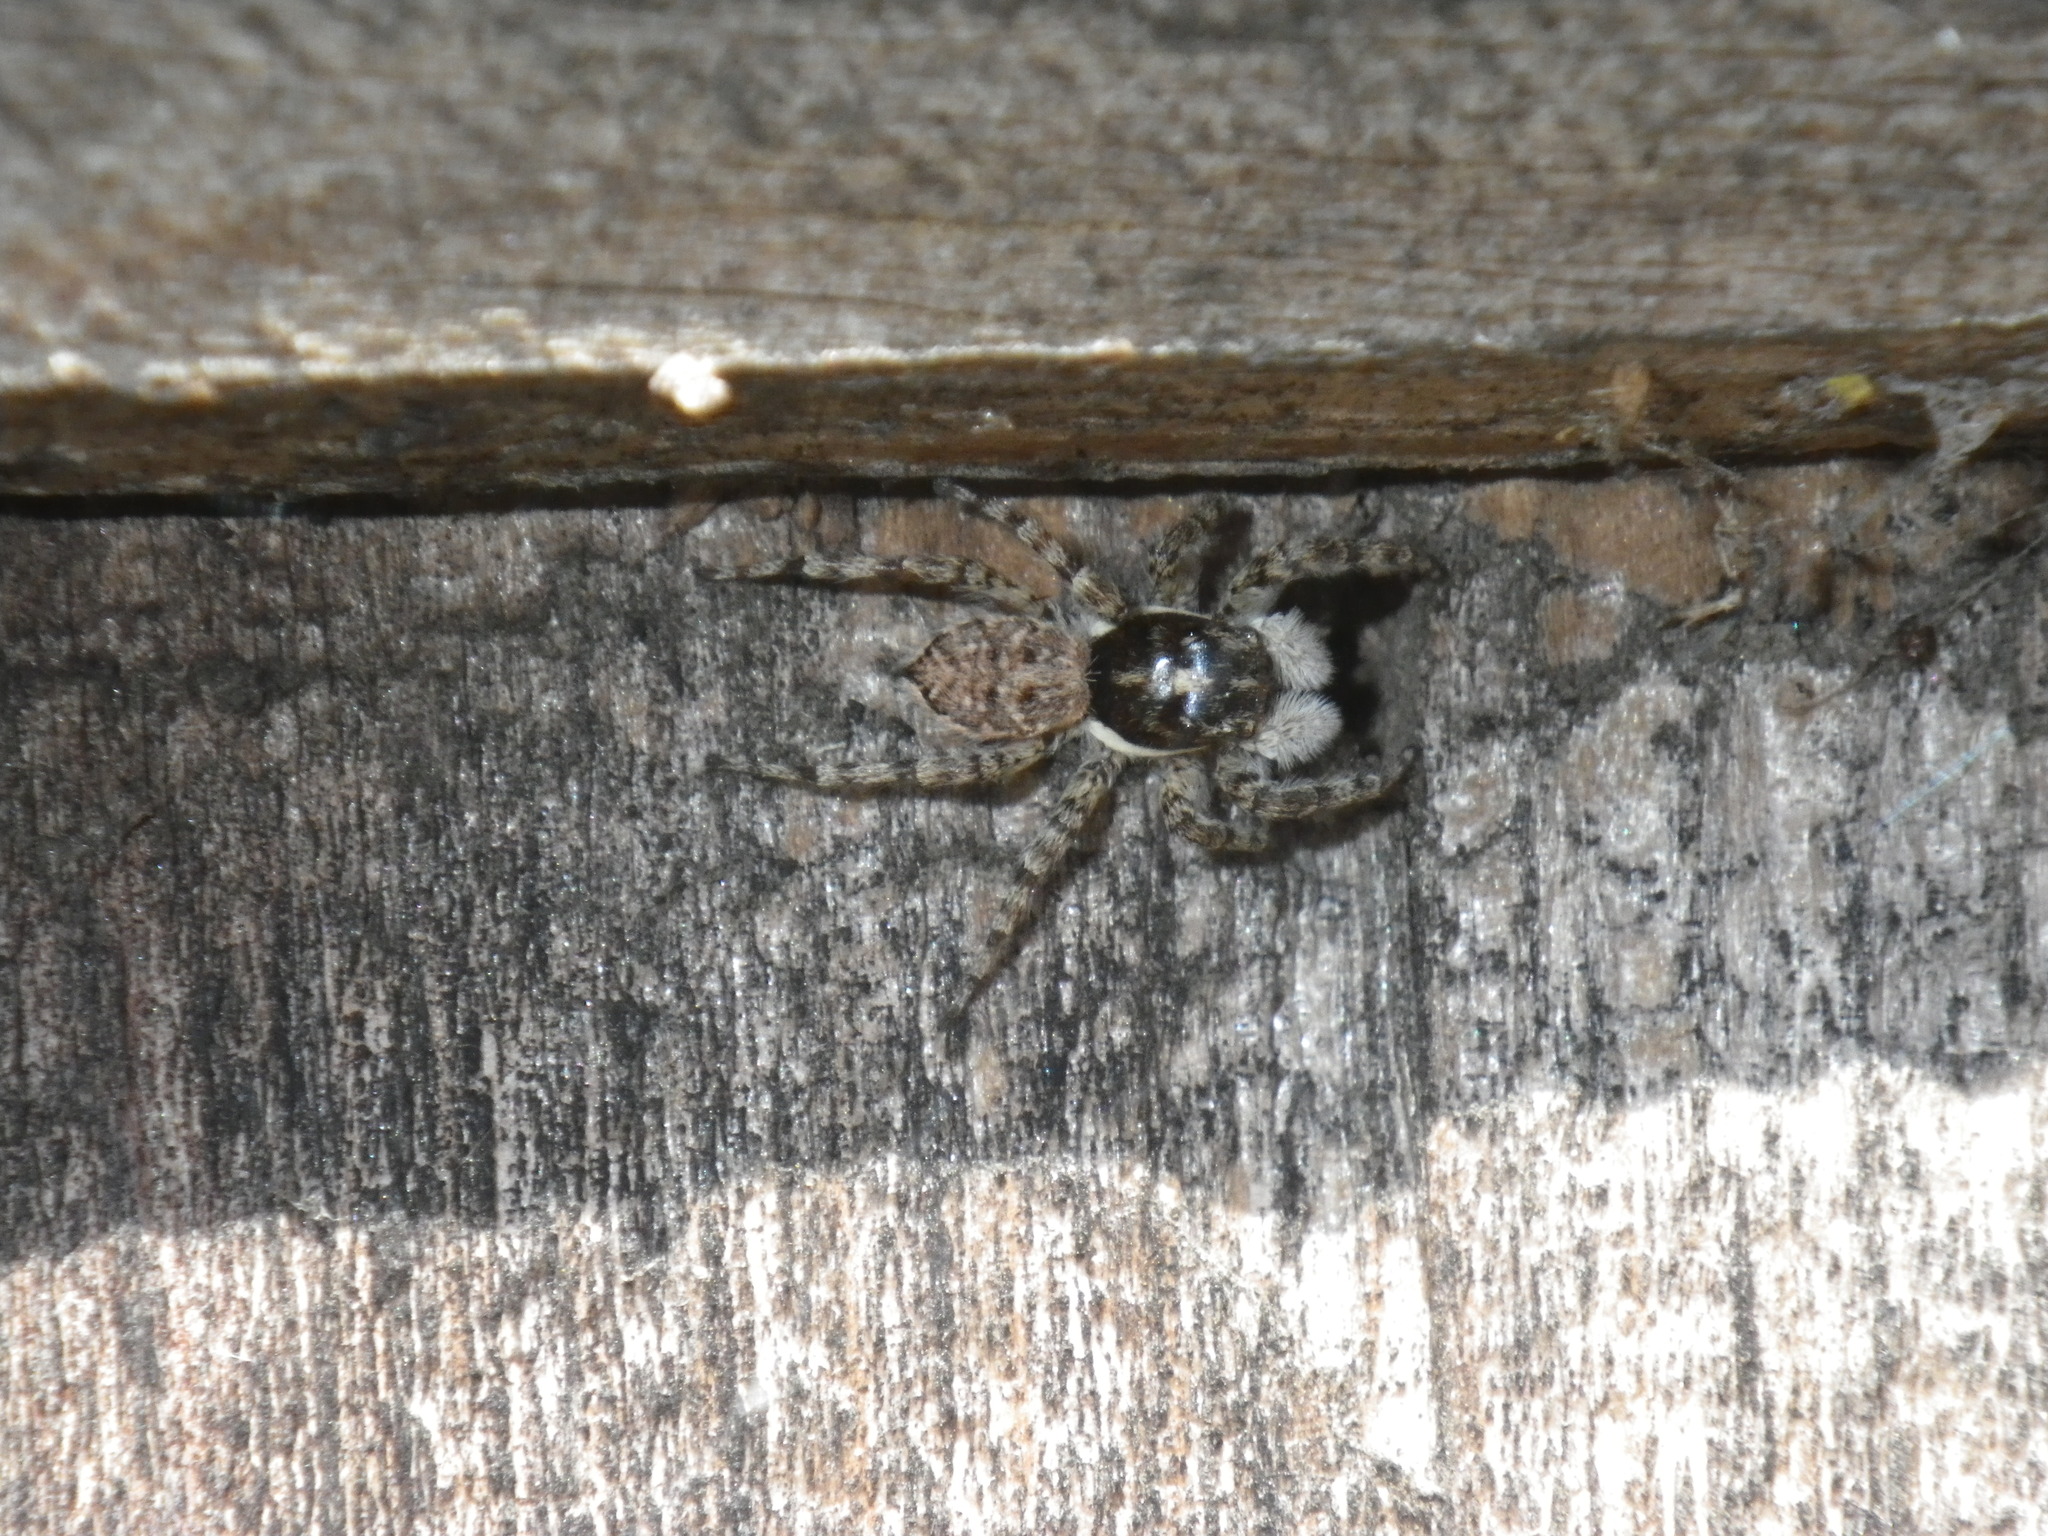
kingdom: Animalia
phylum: Arthropoda
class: Arachnida
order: Araneae
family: Salticidae
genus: Menemerus
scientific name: Menemerus semilimbatus
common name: Jumping spider
